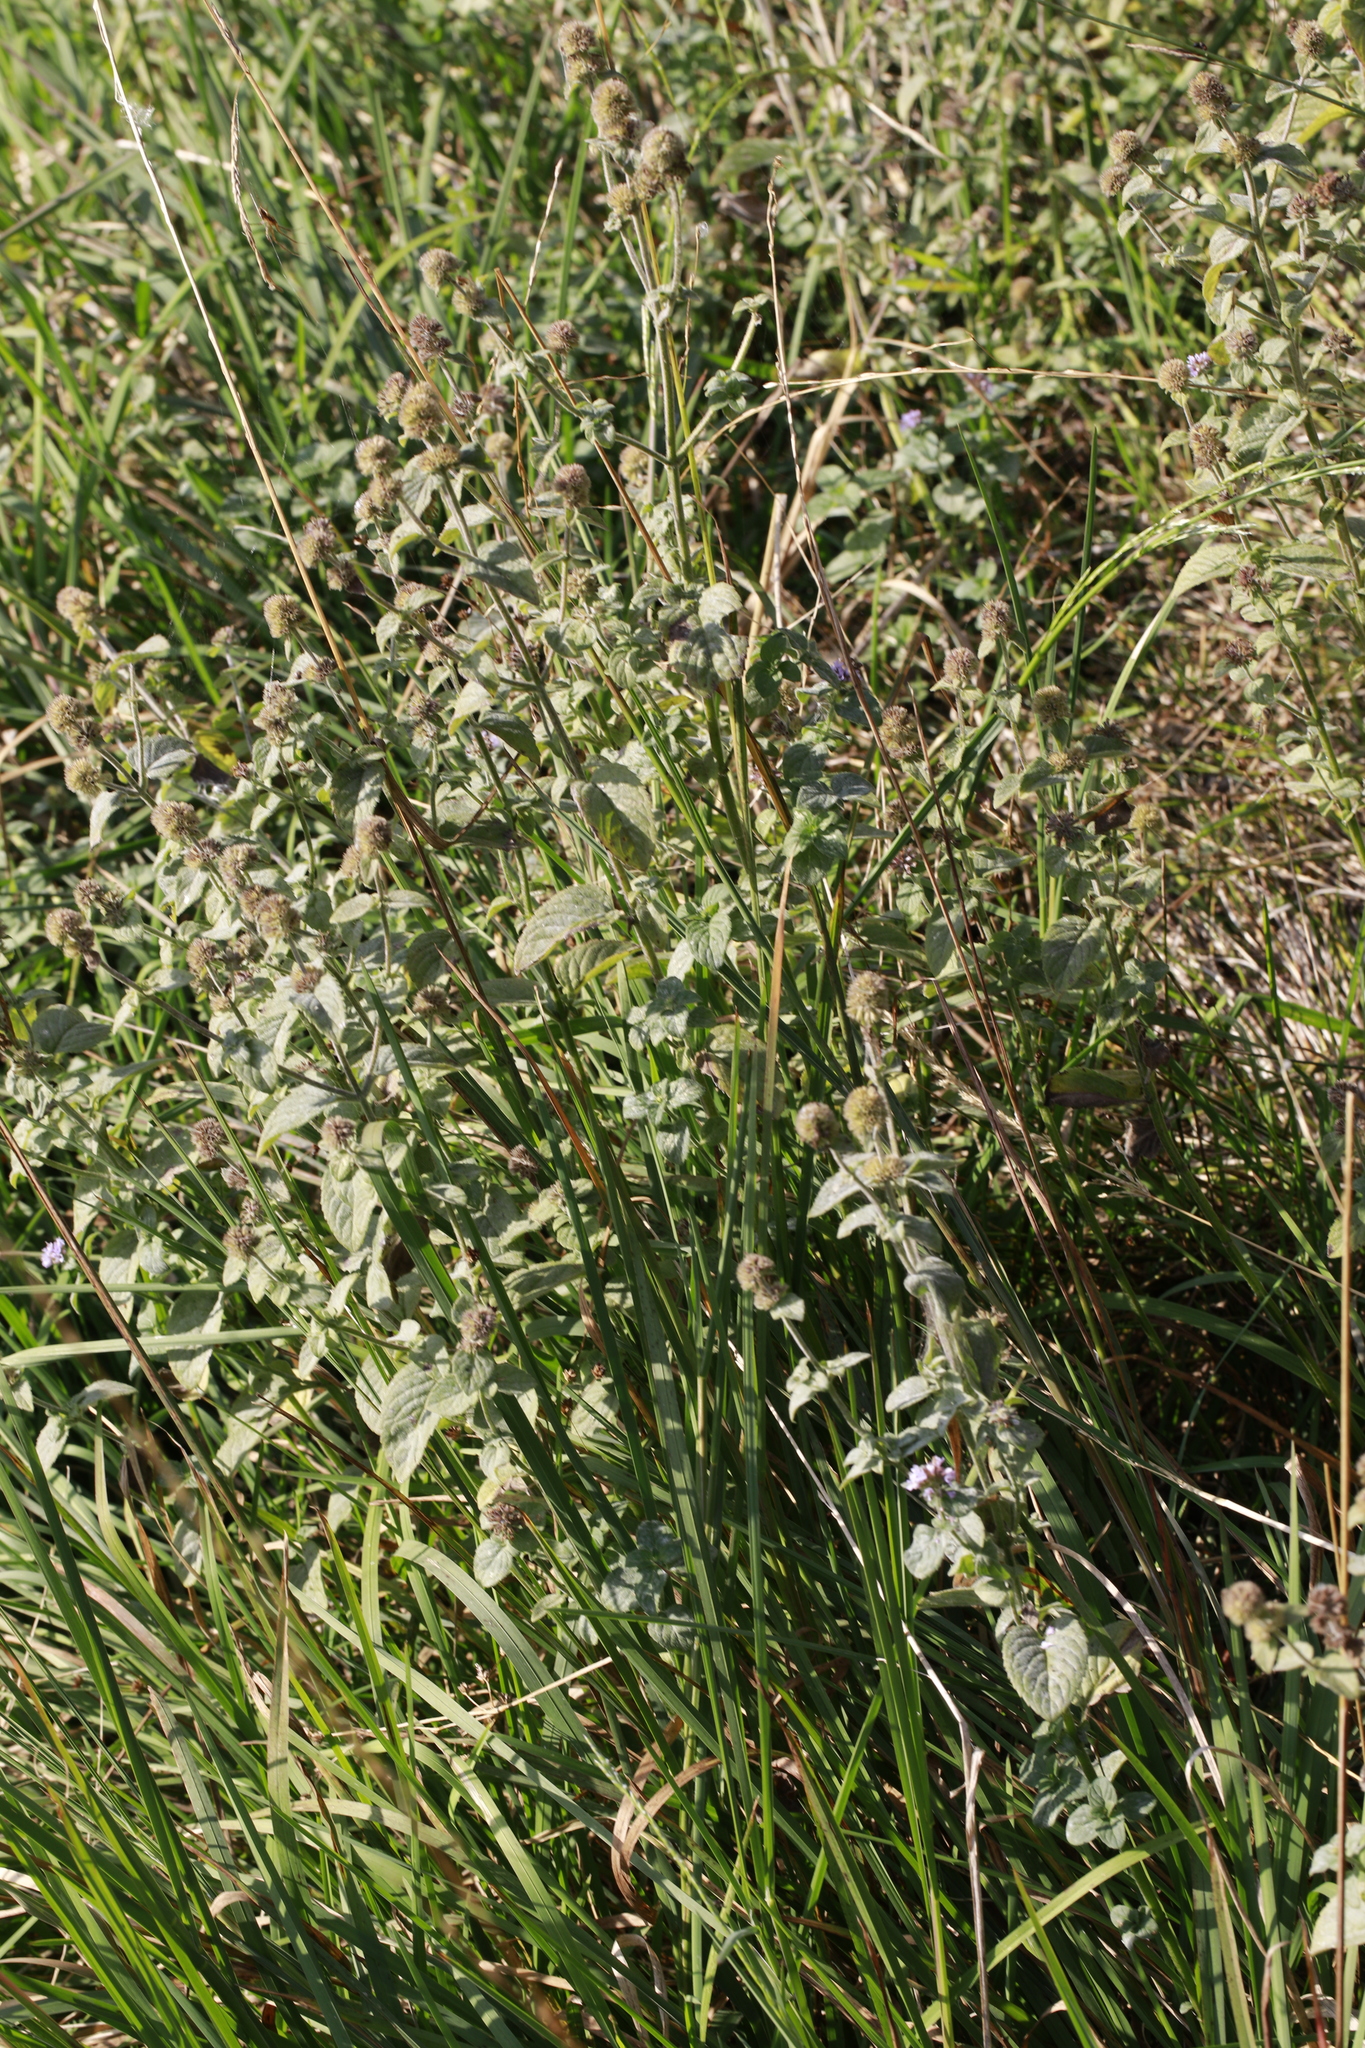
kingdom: Plantae
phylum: Tracheophyta
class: Magnoliopsida
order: Lamiales
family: Lamiaceae
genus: Mentha
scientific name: Mentha aquatica
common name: Water mint
